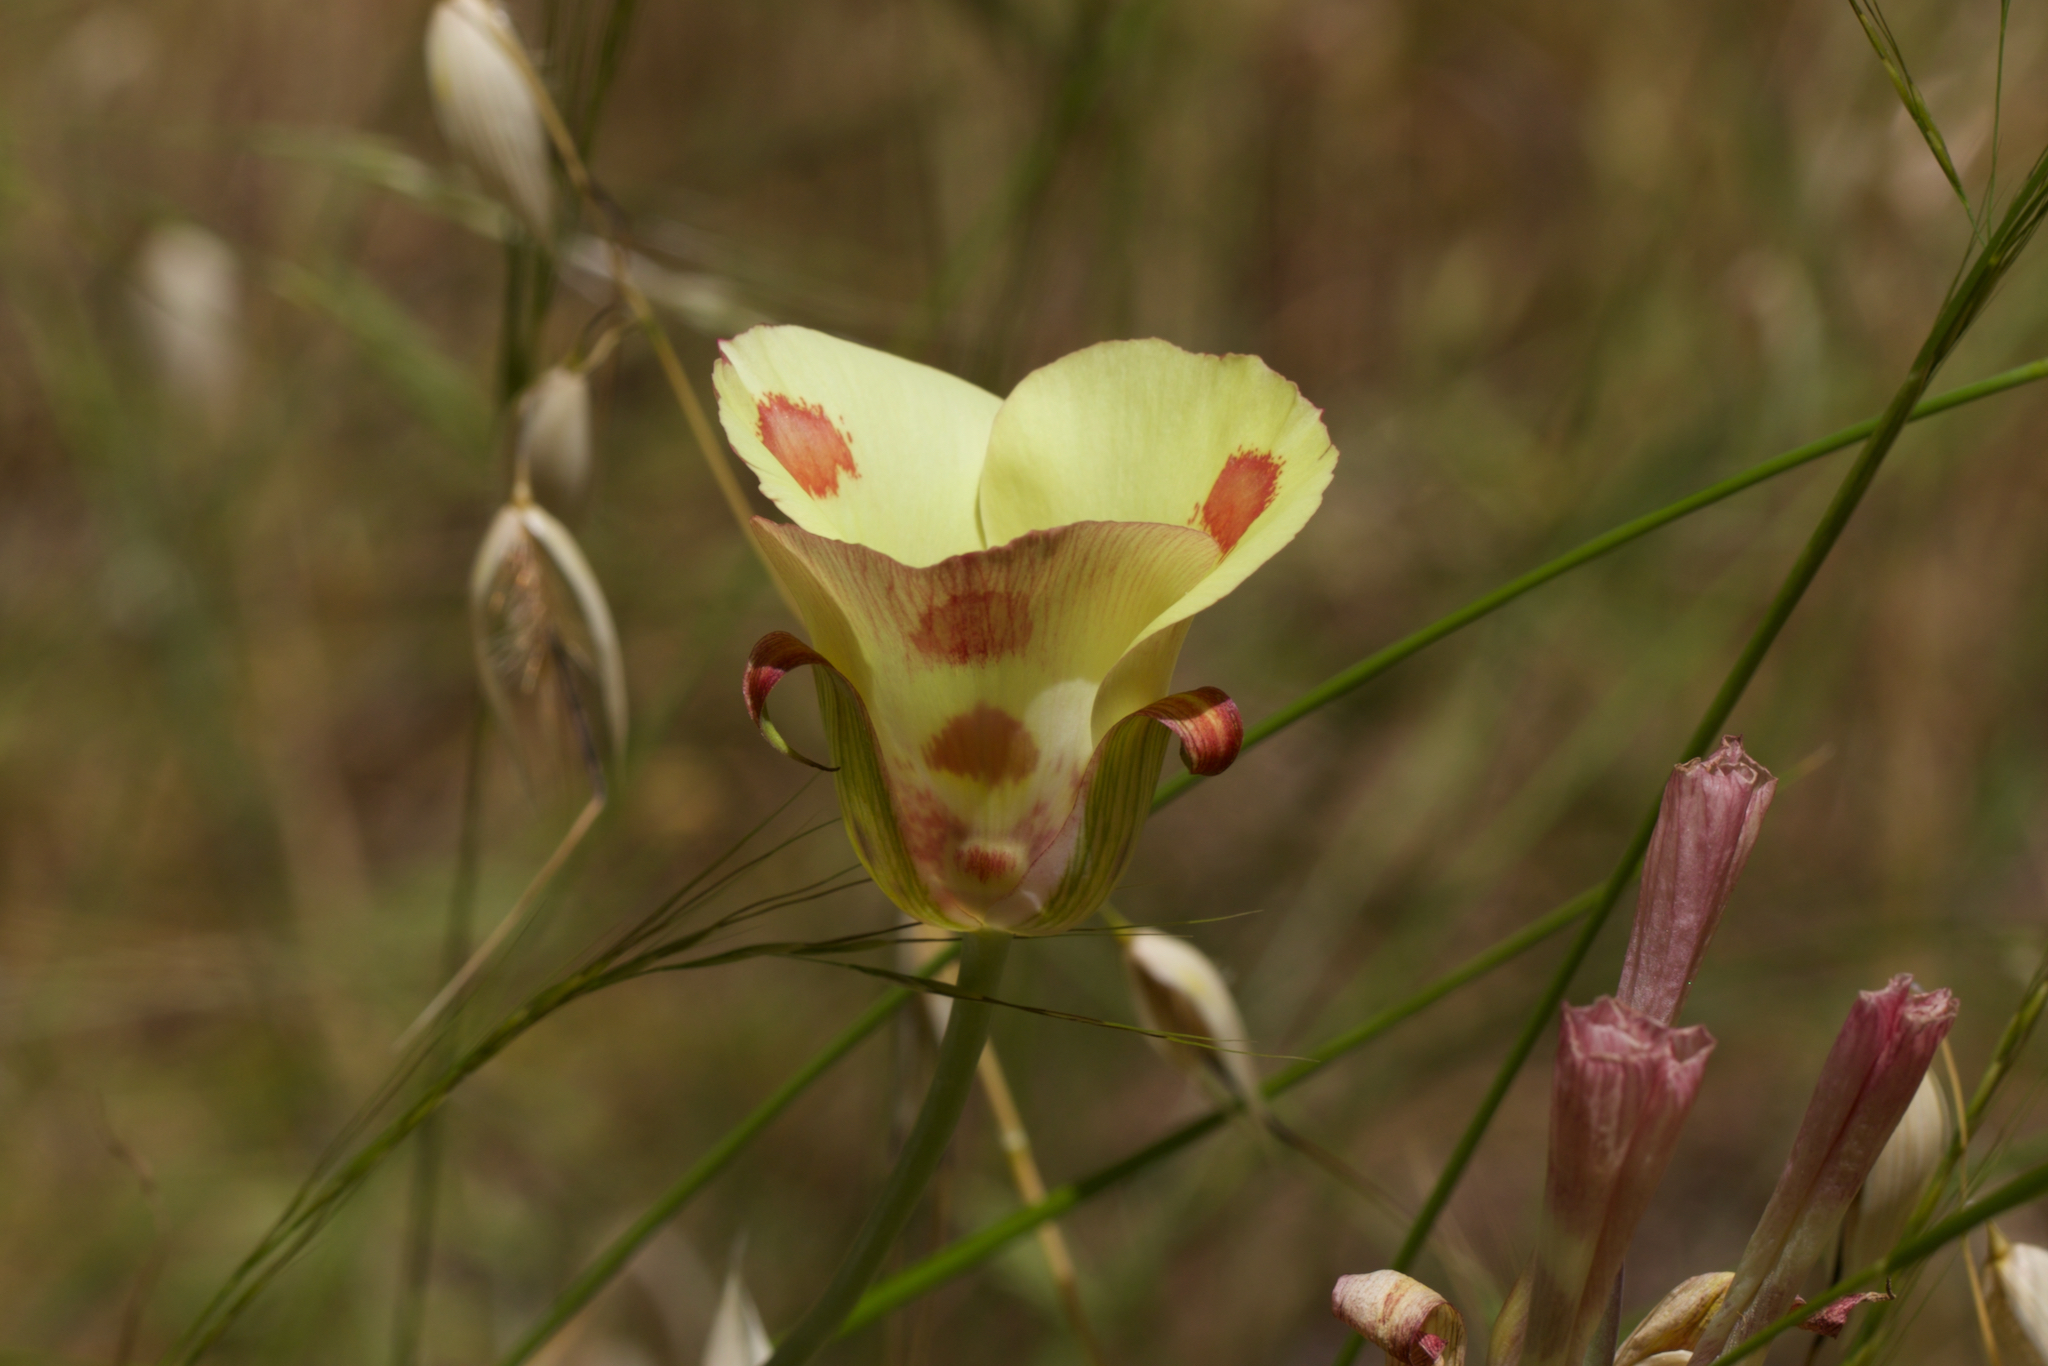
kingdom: Plantae
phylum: Tracheophyta
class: Liliopsida
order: Liliales
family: Liliaceae
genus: Calochortus
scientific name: Calochortus venustus
